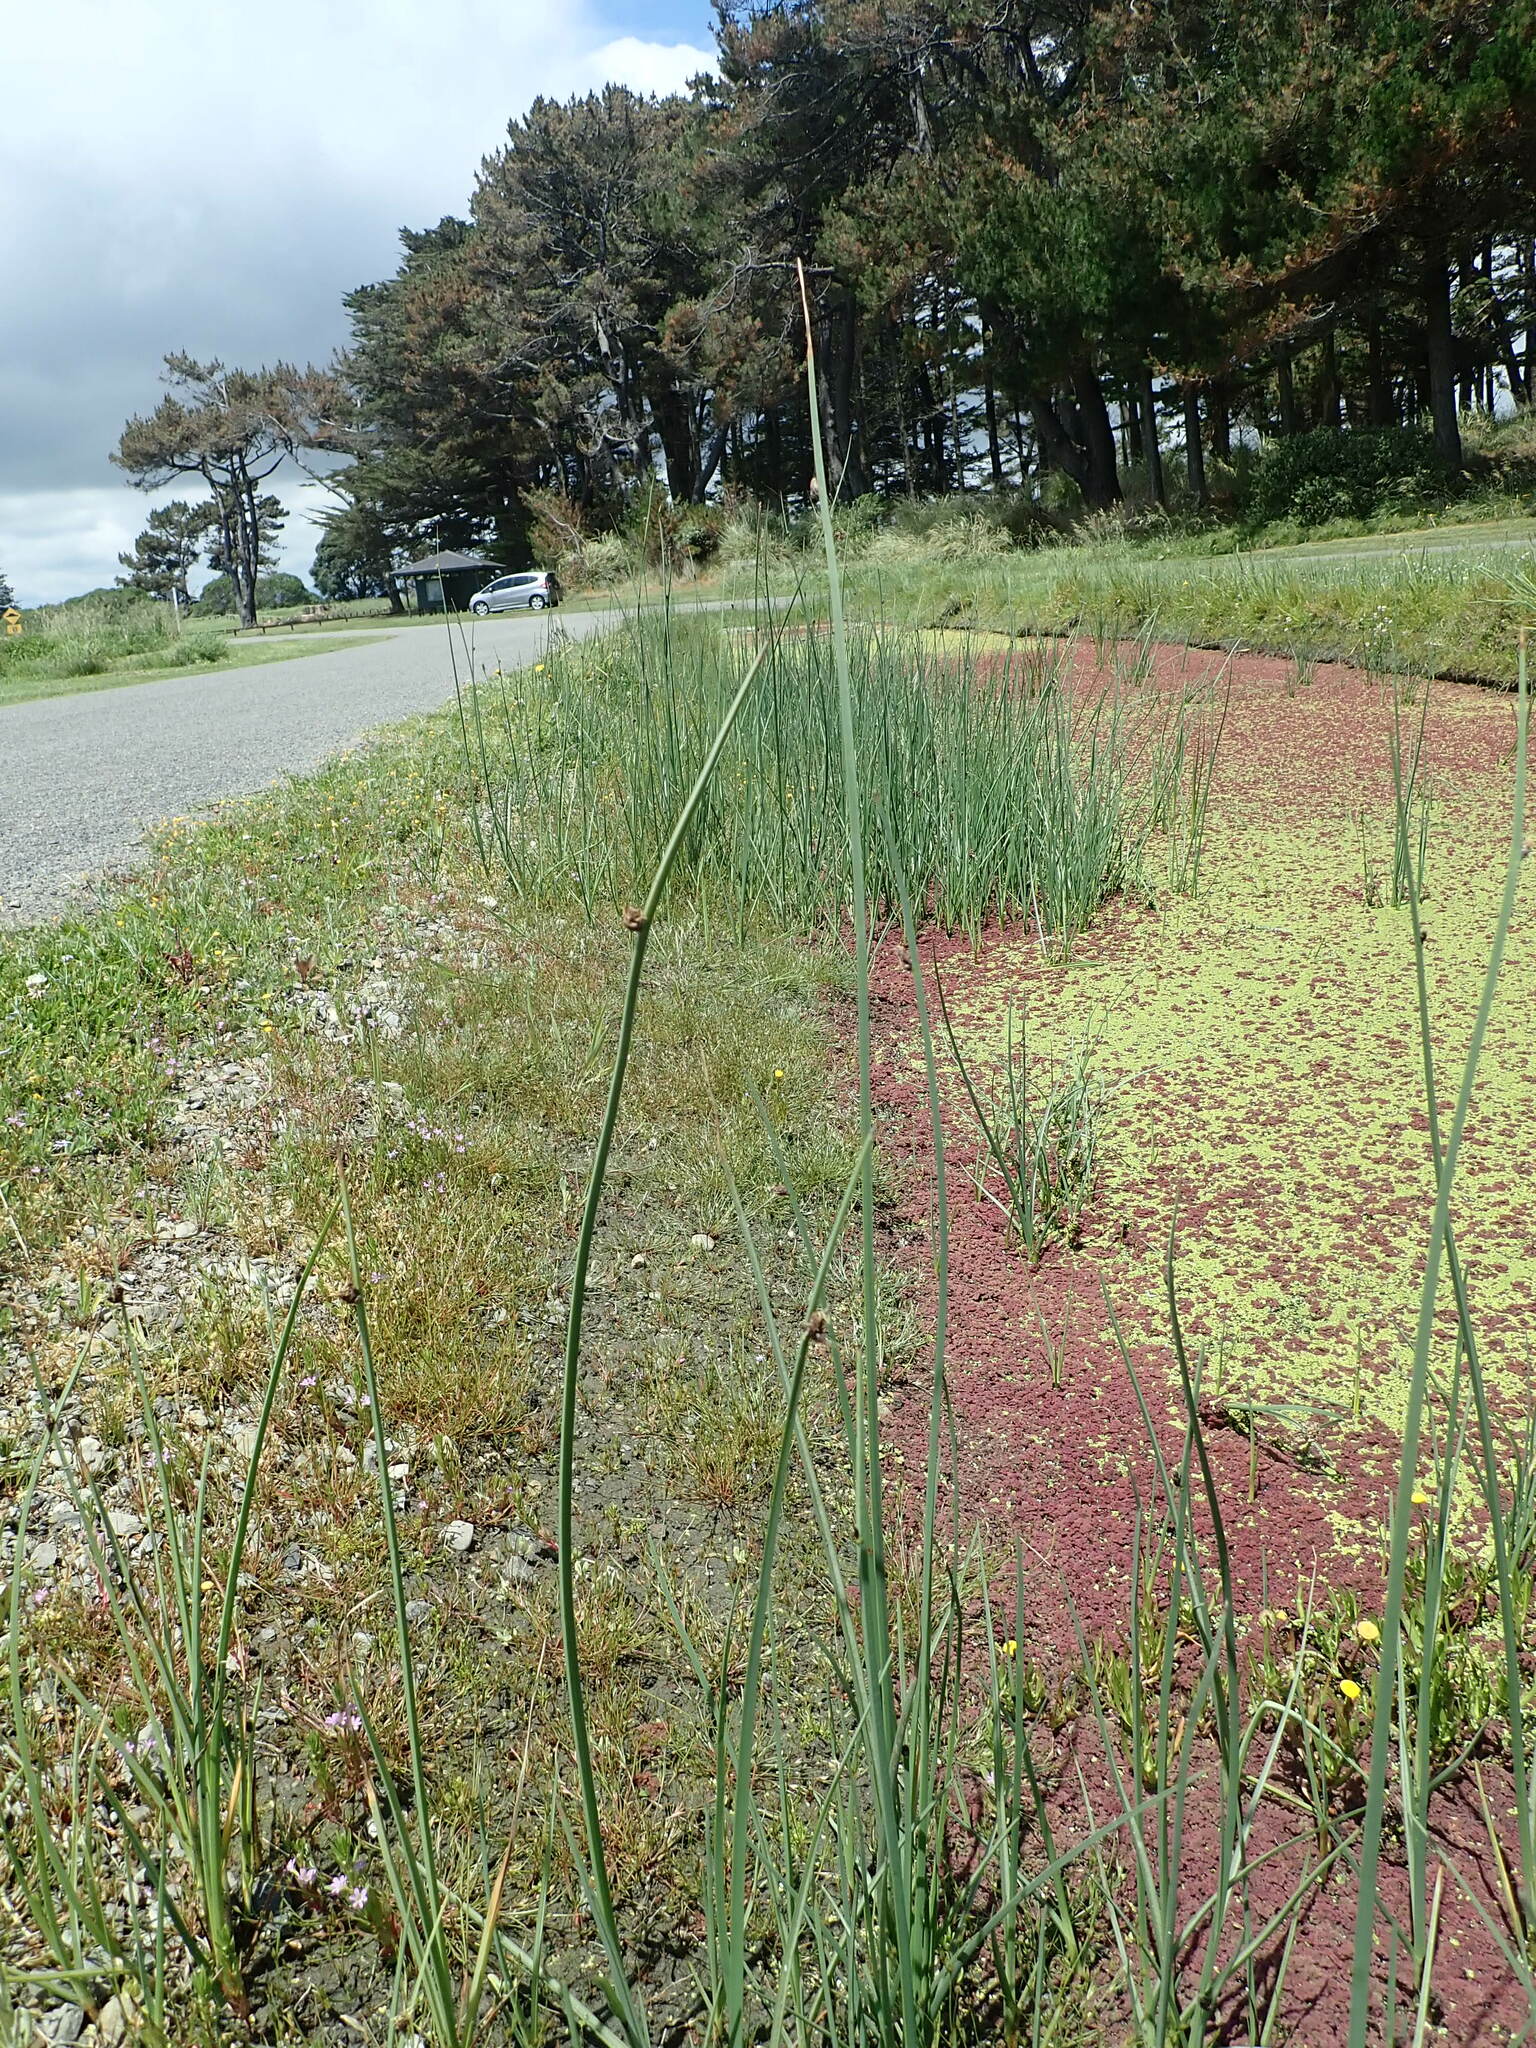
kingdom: Plantae
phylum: Tracheophyta
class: Liliopsida
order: Poales
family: Cyperaceae
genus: Schoenoplectus
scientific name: Schoenoplectus pungens
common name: Sharp club-rush
